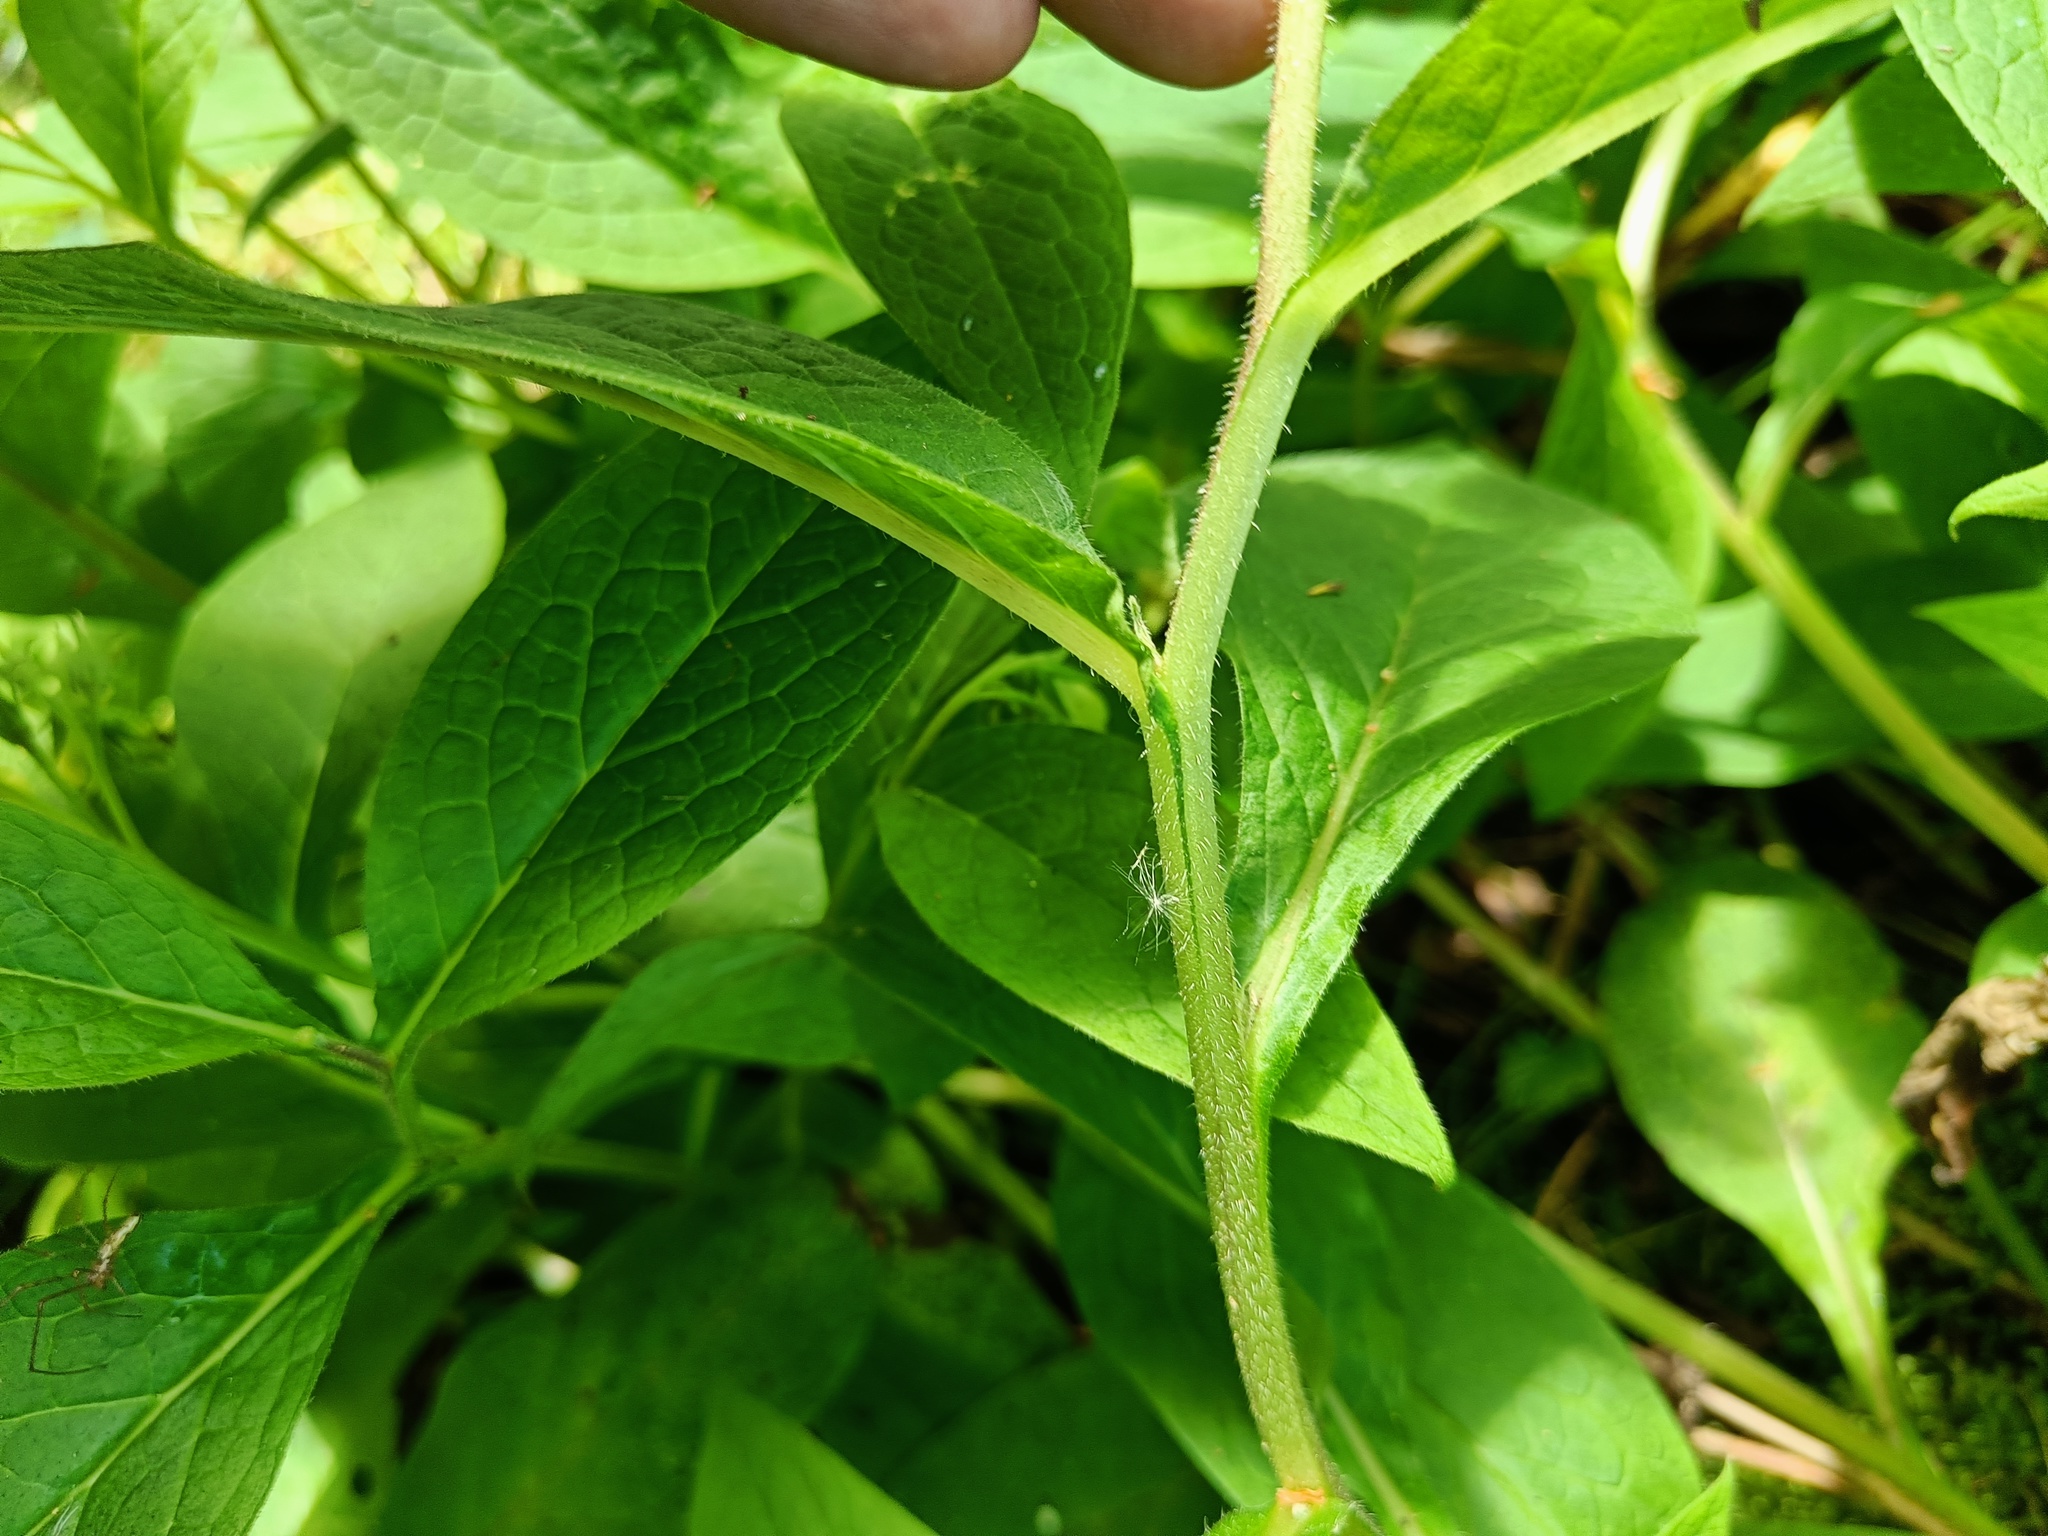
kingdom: Plantae
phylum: Tracheophyta
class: Magnoliopsida
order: Boraginales
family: Boraginaceae
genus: Symphytum
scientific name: Symphytum tuberosum
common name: Tuberous comfrey
